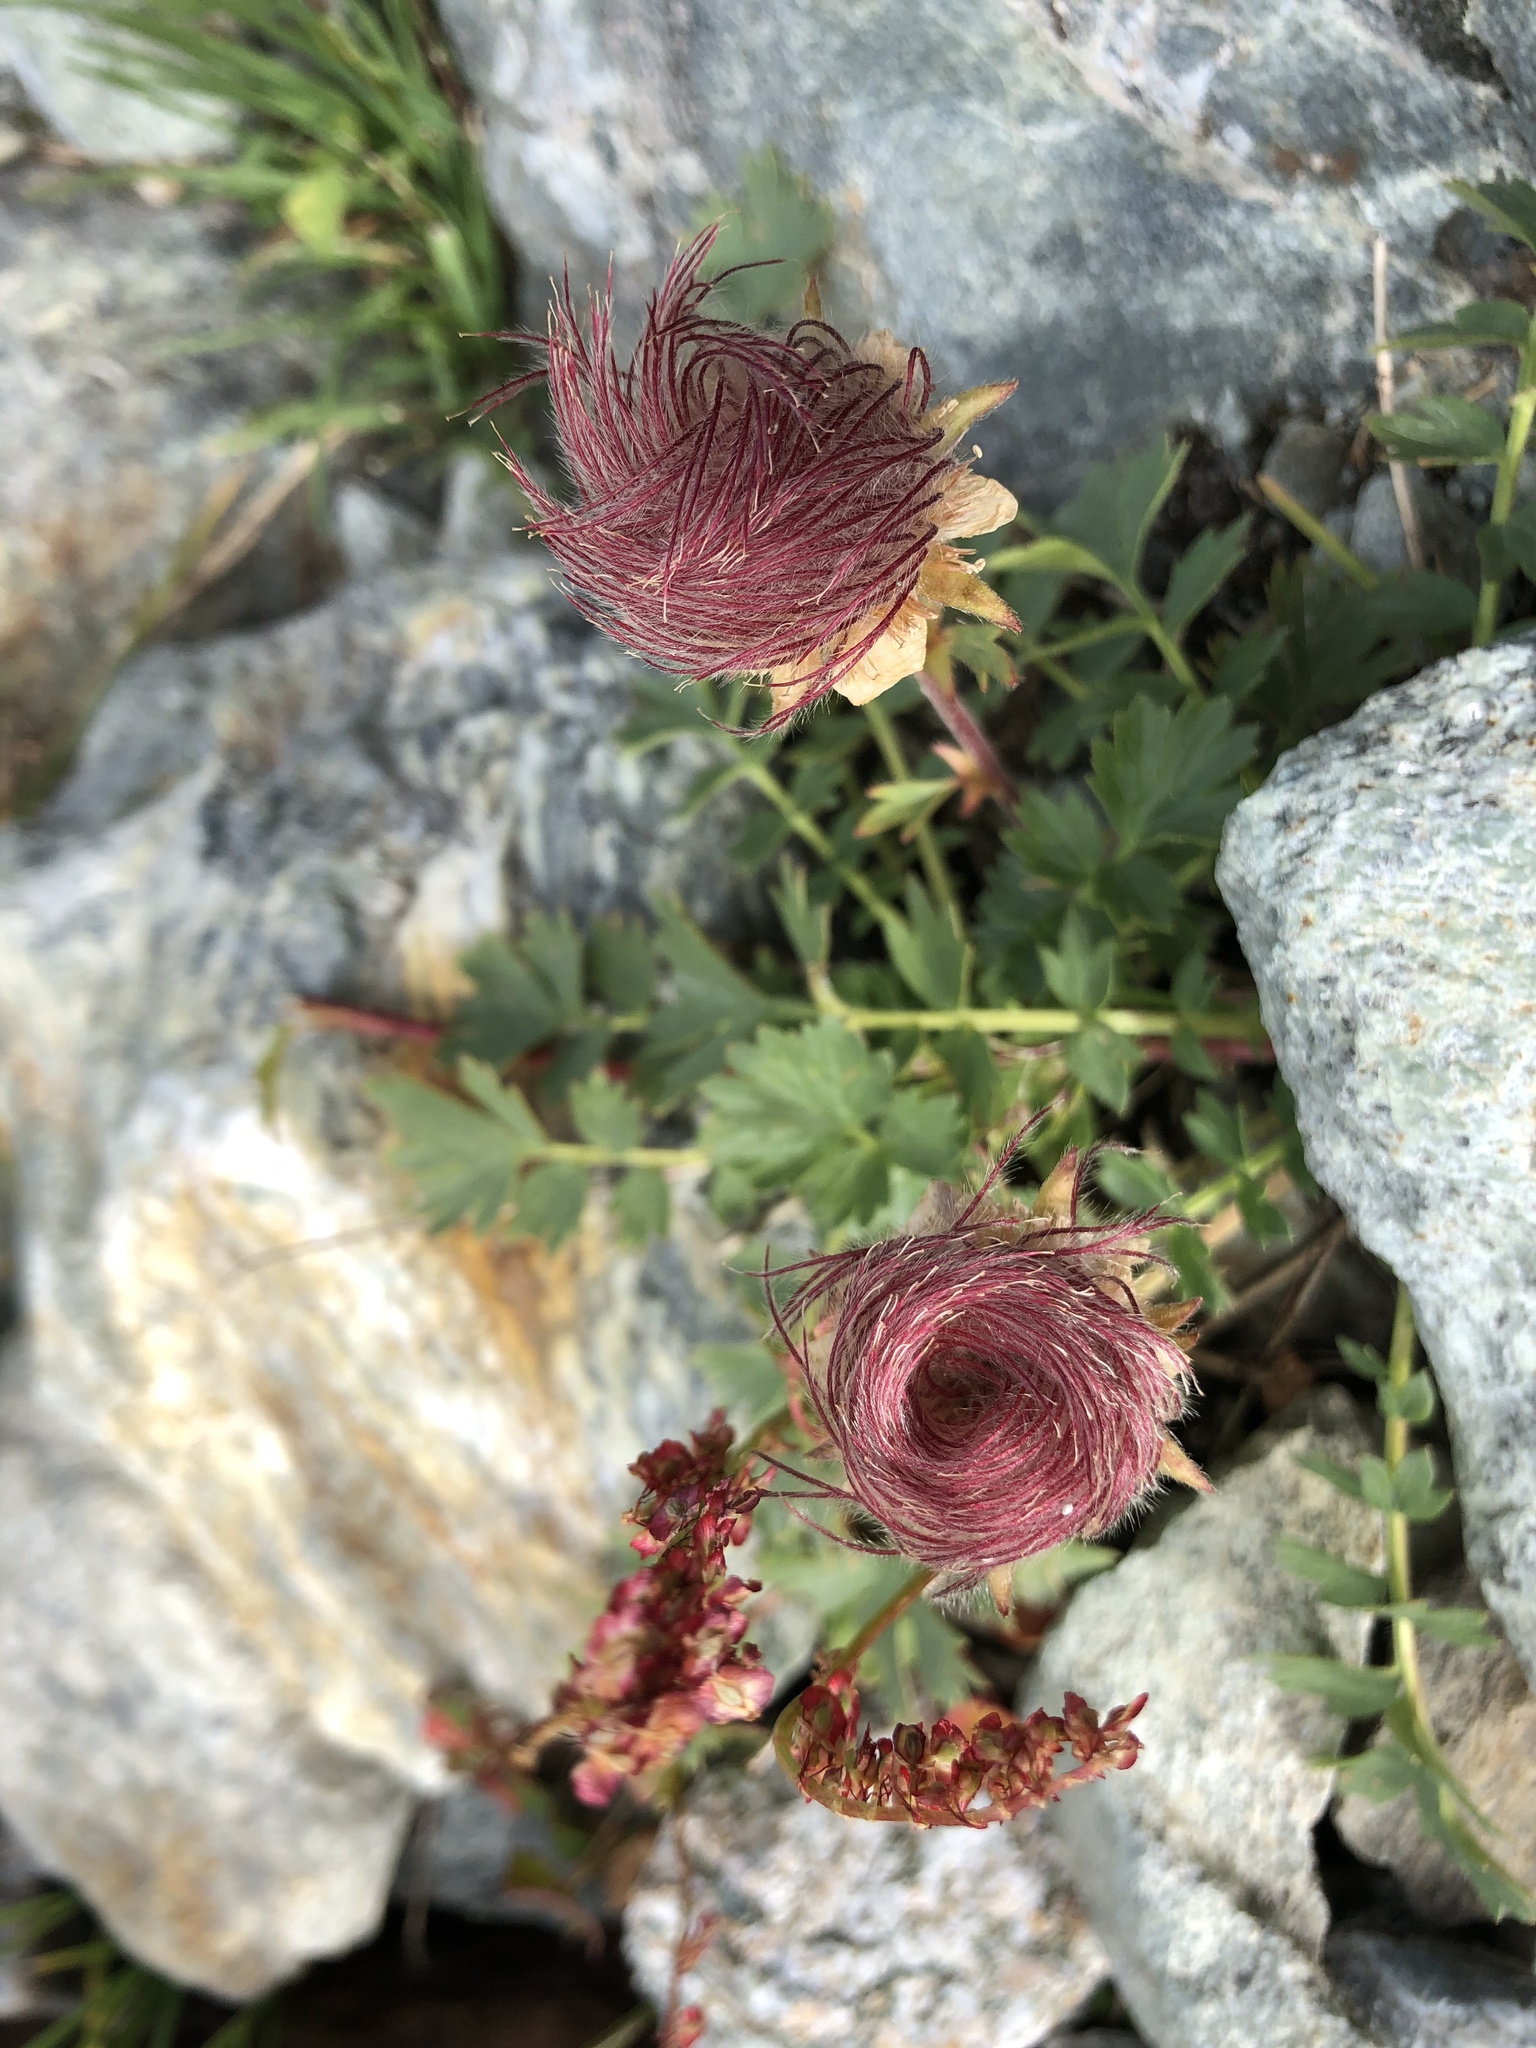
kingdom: Plantae
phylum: Tracheophyta
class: Magnoliopsida
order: Rosales
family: Rosaceae
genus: Geum
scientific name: Geum reptans
